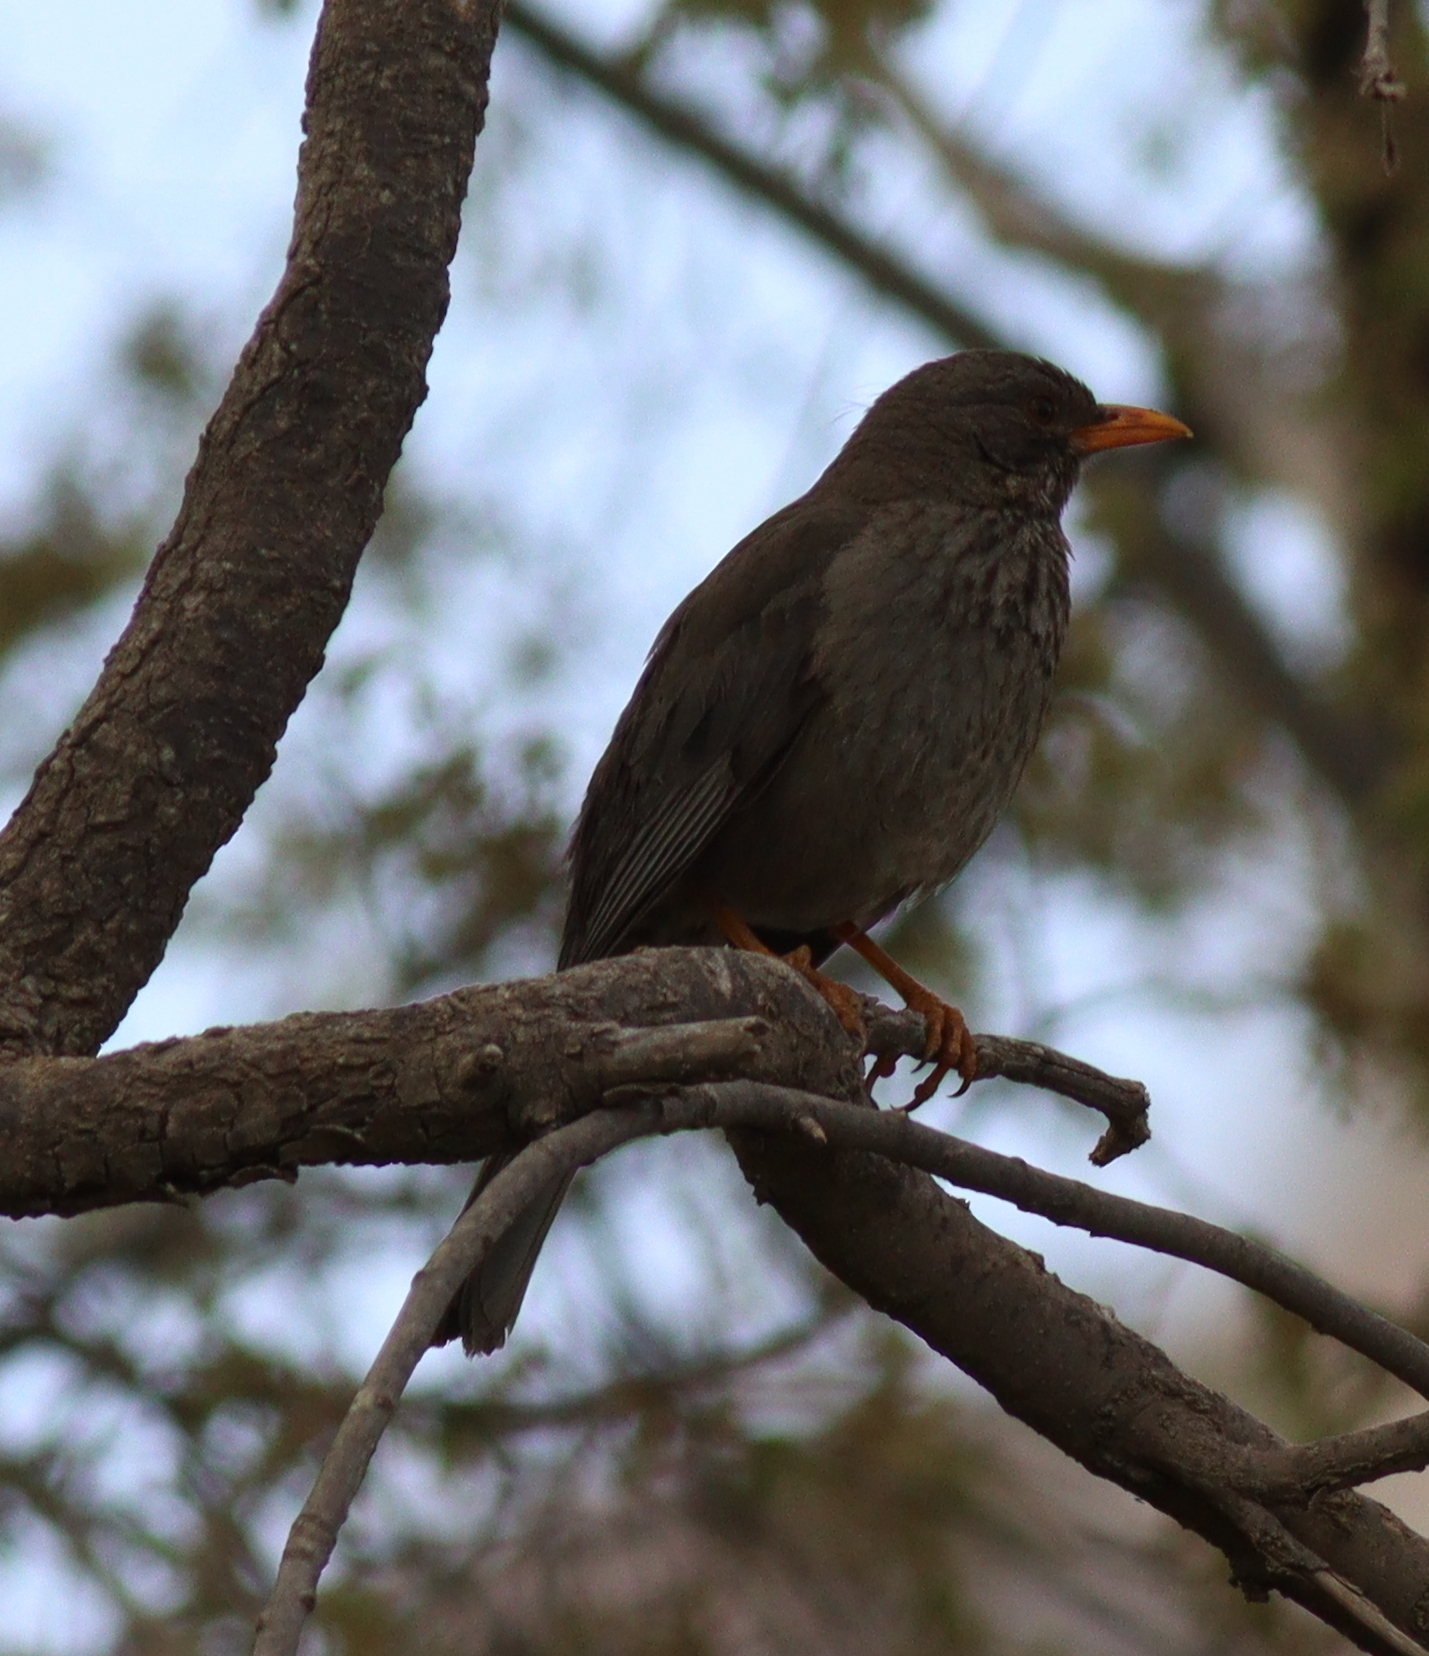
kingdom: Animalia
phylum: Chordata
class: Aves
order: Passeriformes
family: Turdidae
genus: Turdus
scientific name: Turdus menachensis
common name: Yemen thrush
